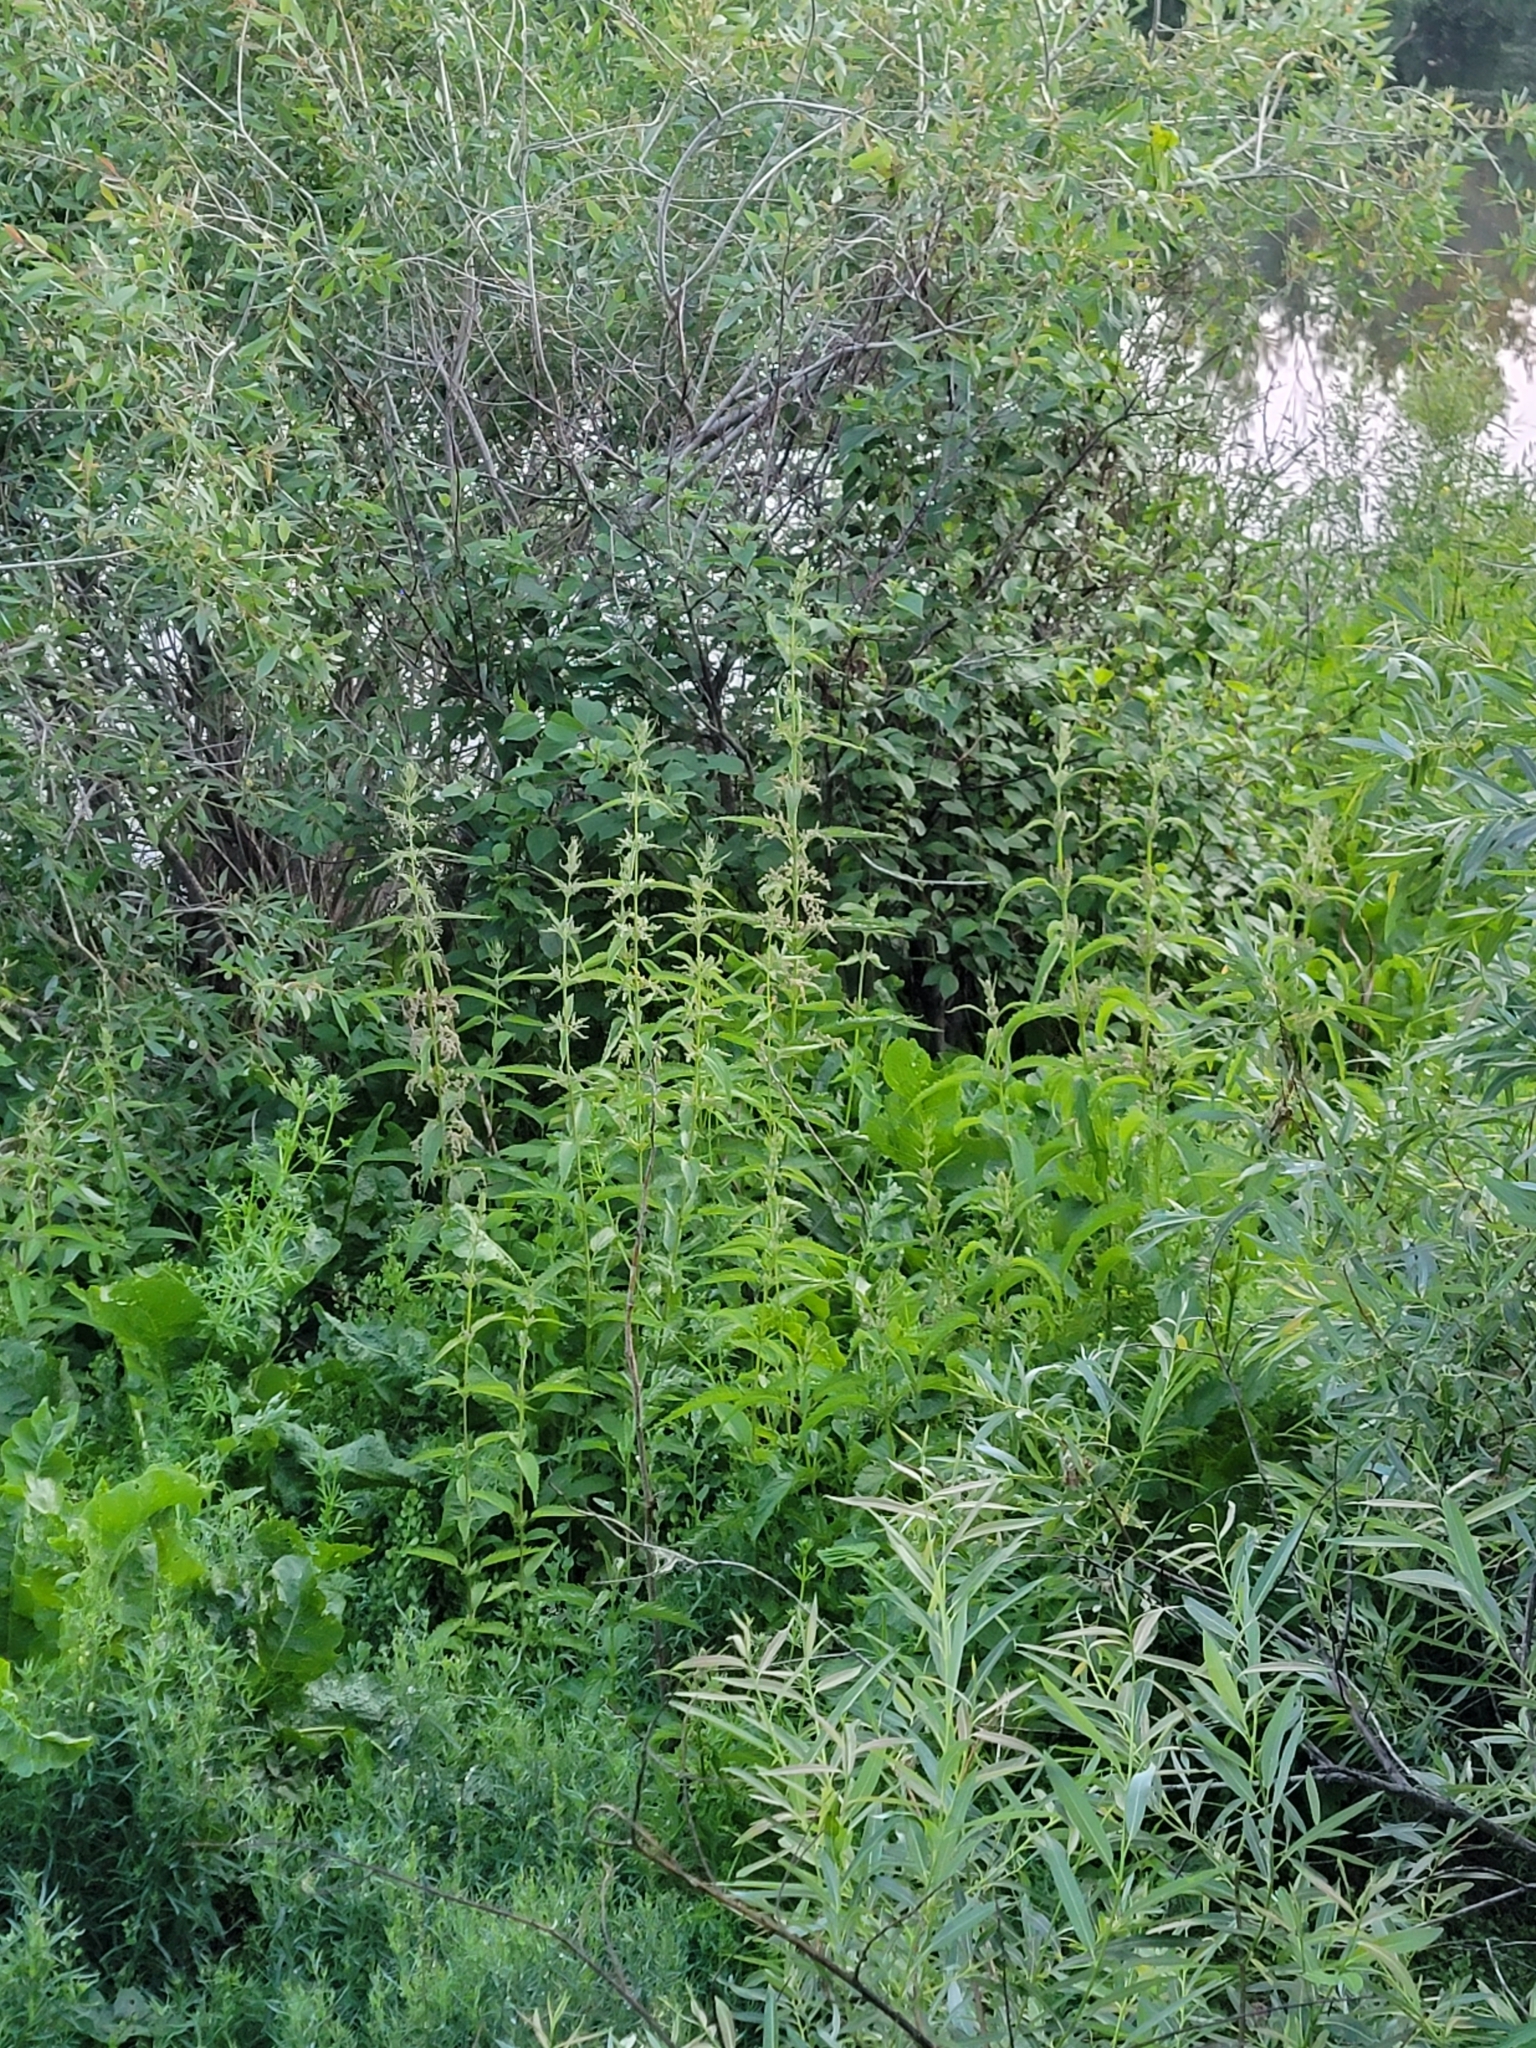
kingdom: Plantae
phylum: Tracheophyta
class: Magnoliopsida
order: Rosales
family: Urticaceae
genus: Urtica
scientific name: Urtica gracilis
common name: Slender stinging nettle
